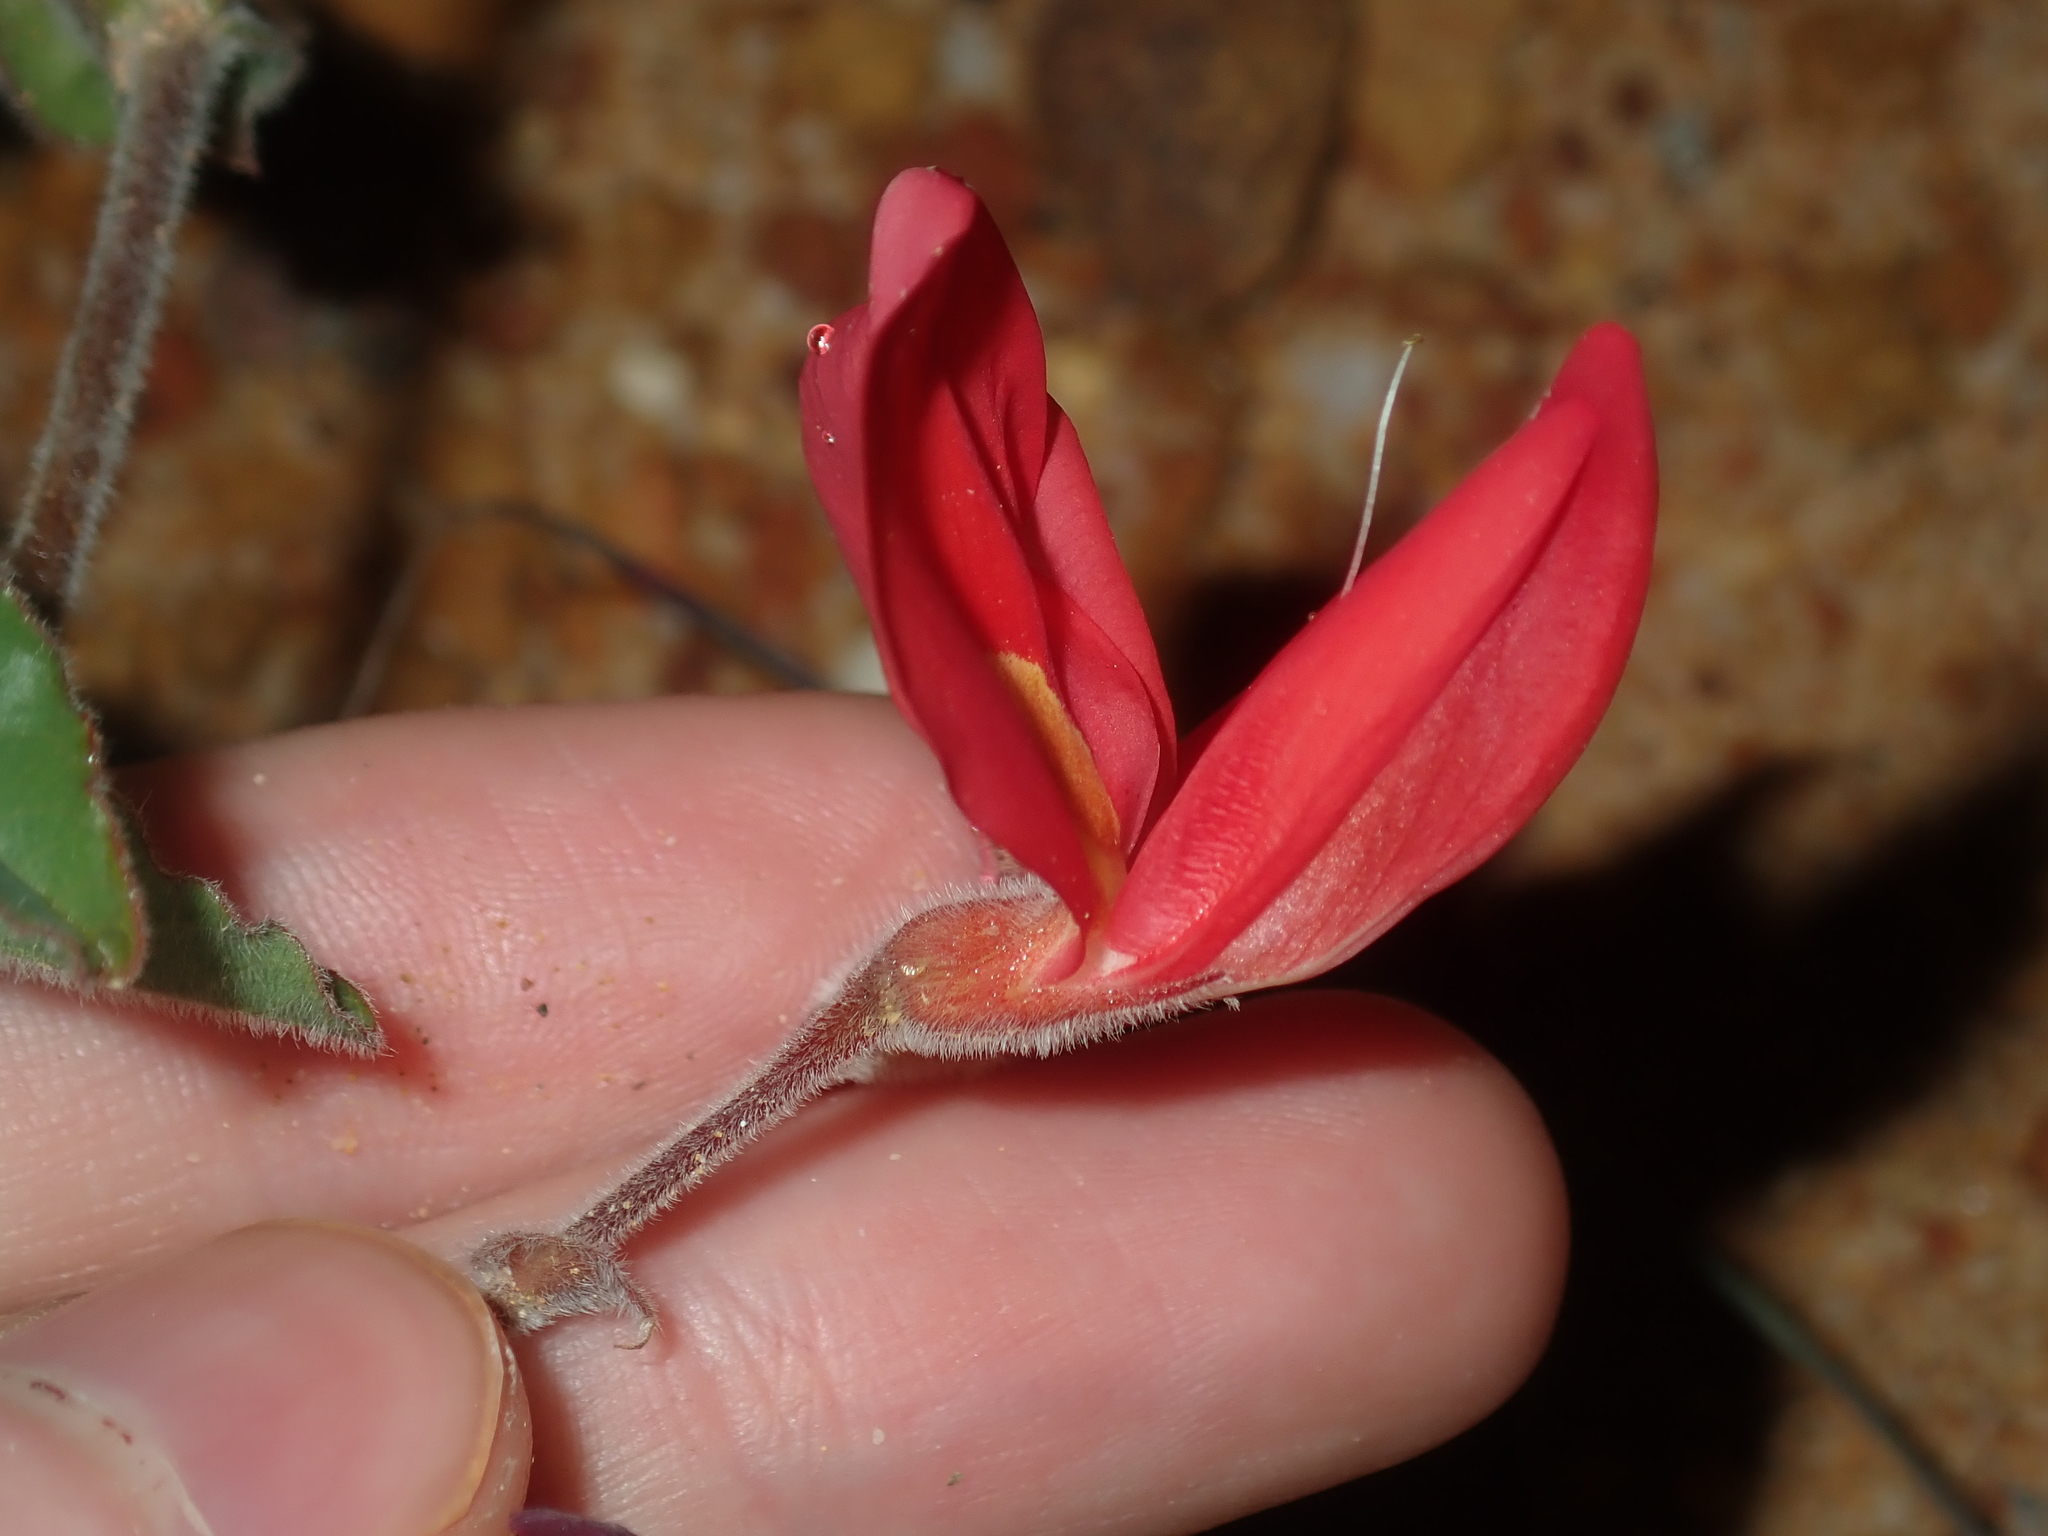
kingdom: Plantae
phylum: Tracheophyta
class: Magnoliopsida
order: Fabales
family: Fabaceae
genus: Kennedia
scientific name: Kennedia prostrata
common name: Running-postman
